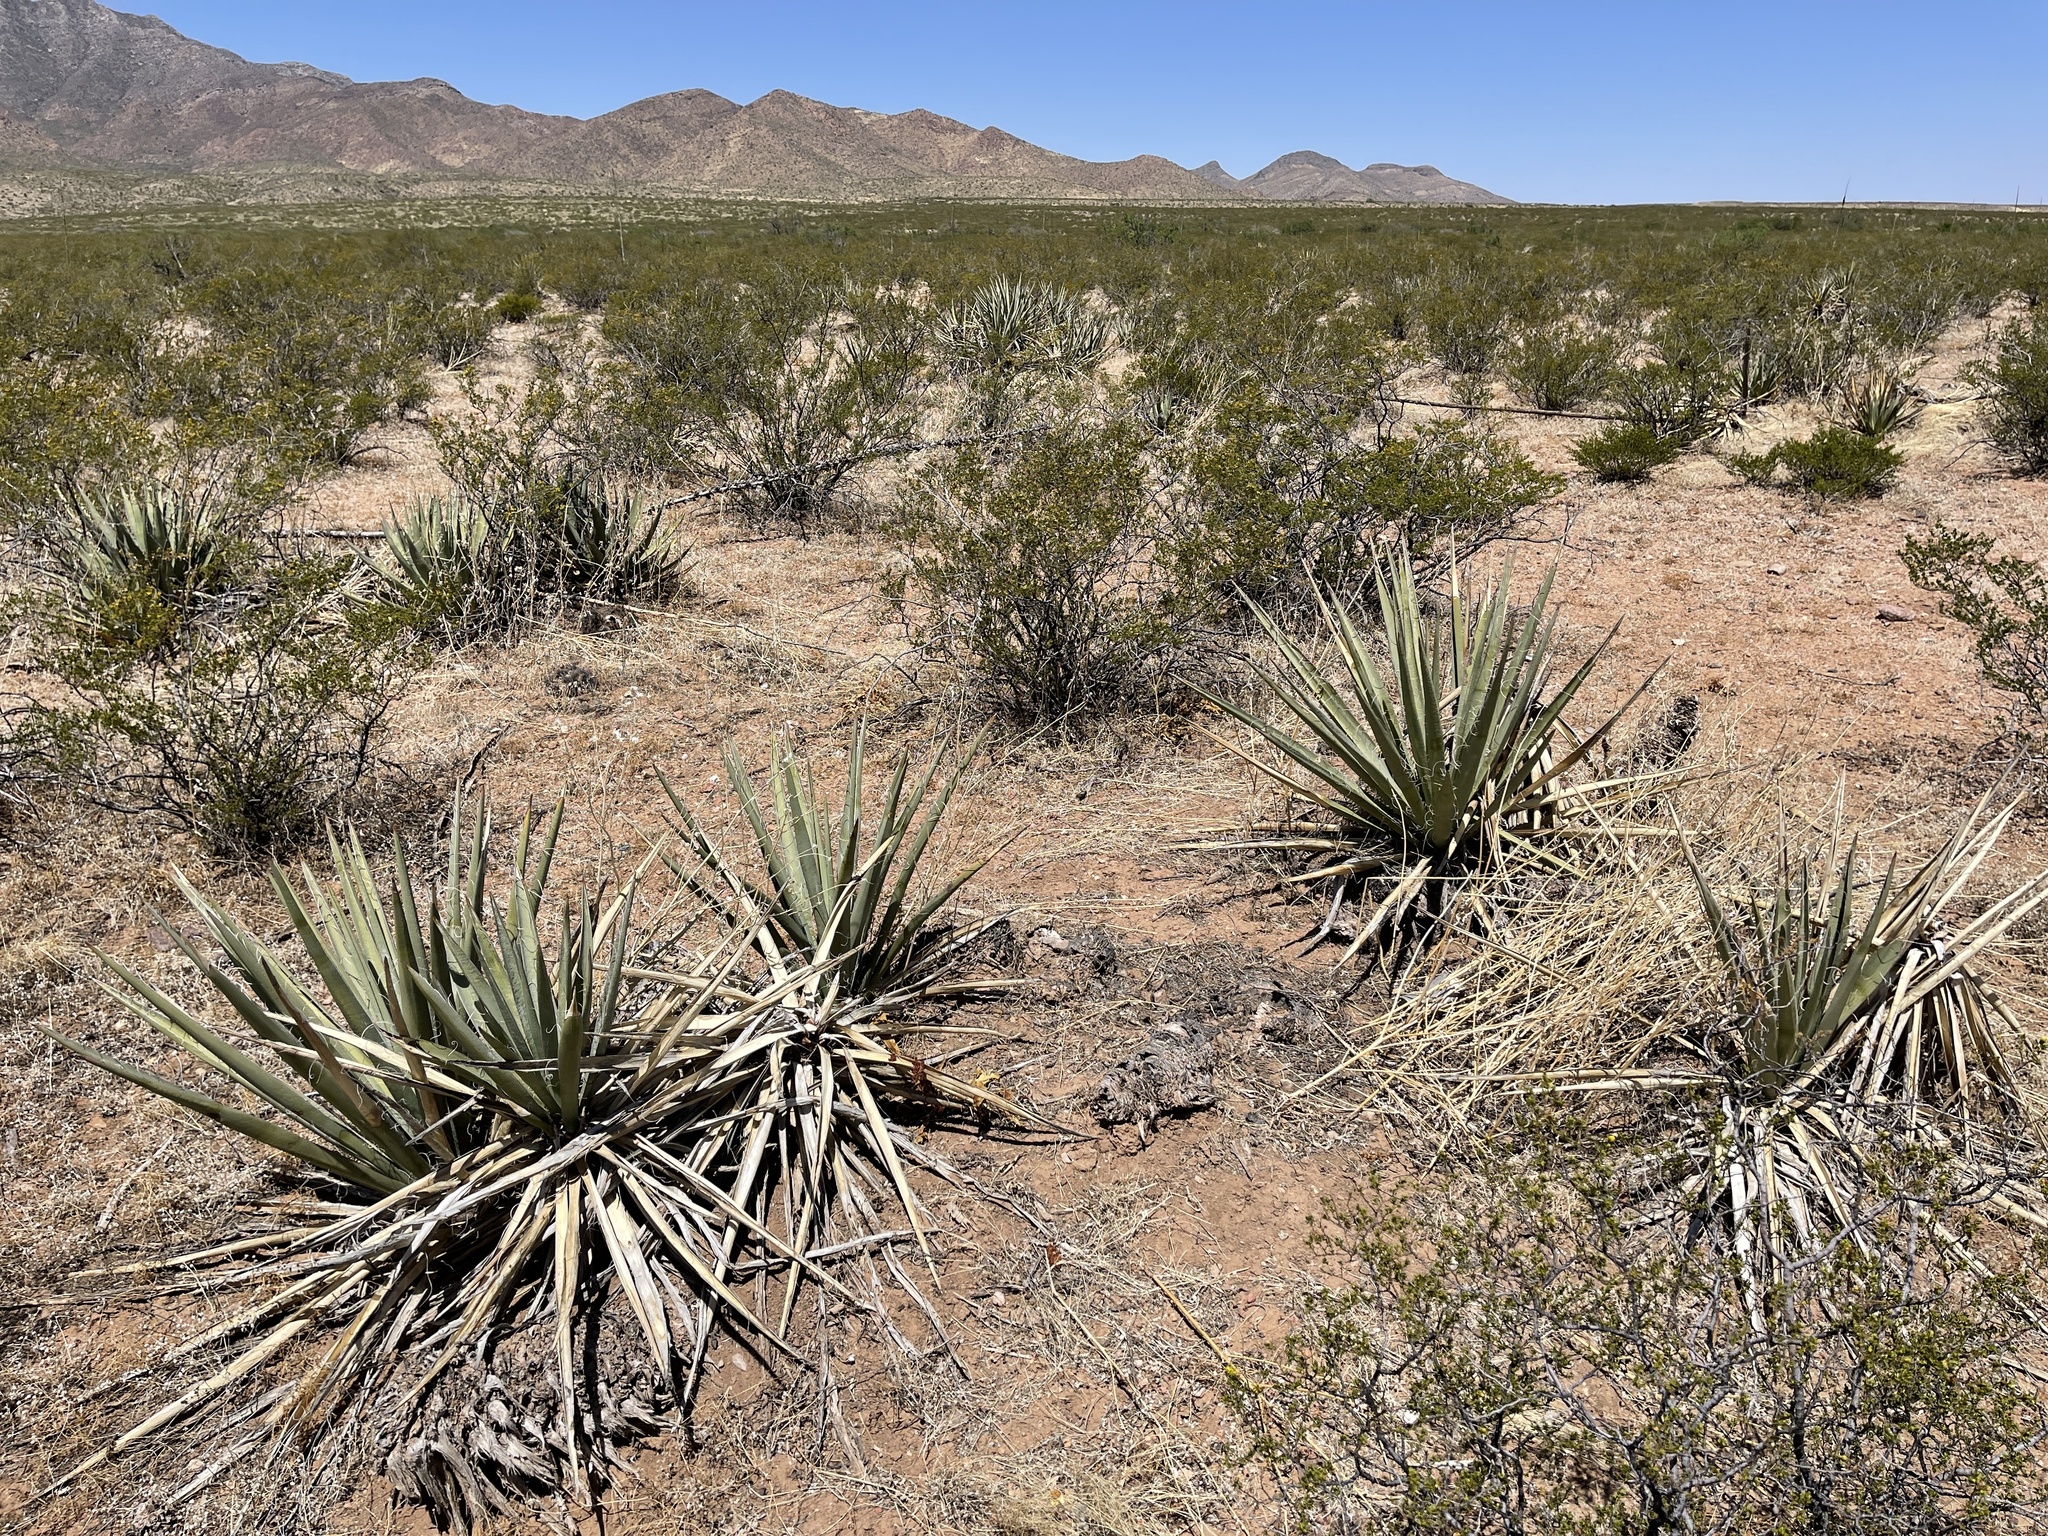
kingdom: Plantae
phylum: Tracheophyta
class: Liliopsida
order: Asparagales
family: Asparagaceae
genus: Yucca
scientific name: Yucca baccata
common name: Banana yucca
